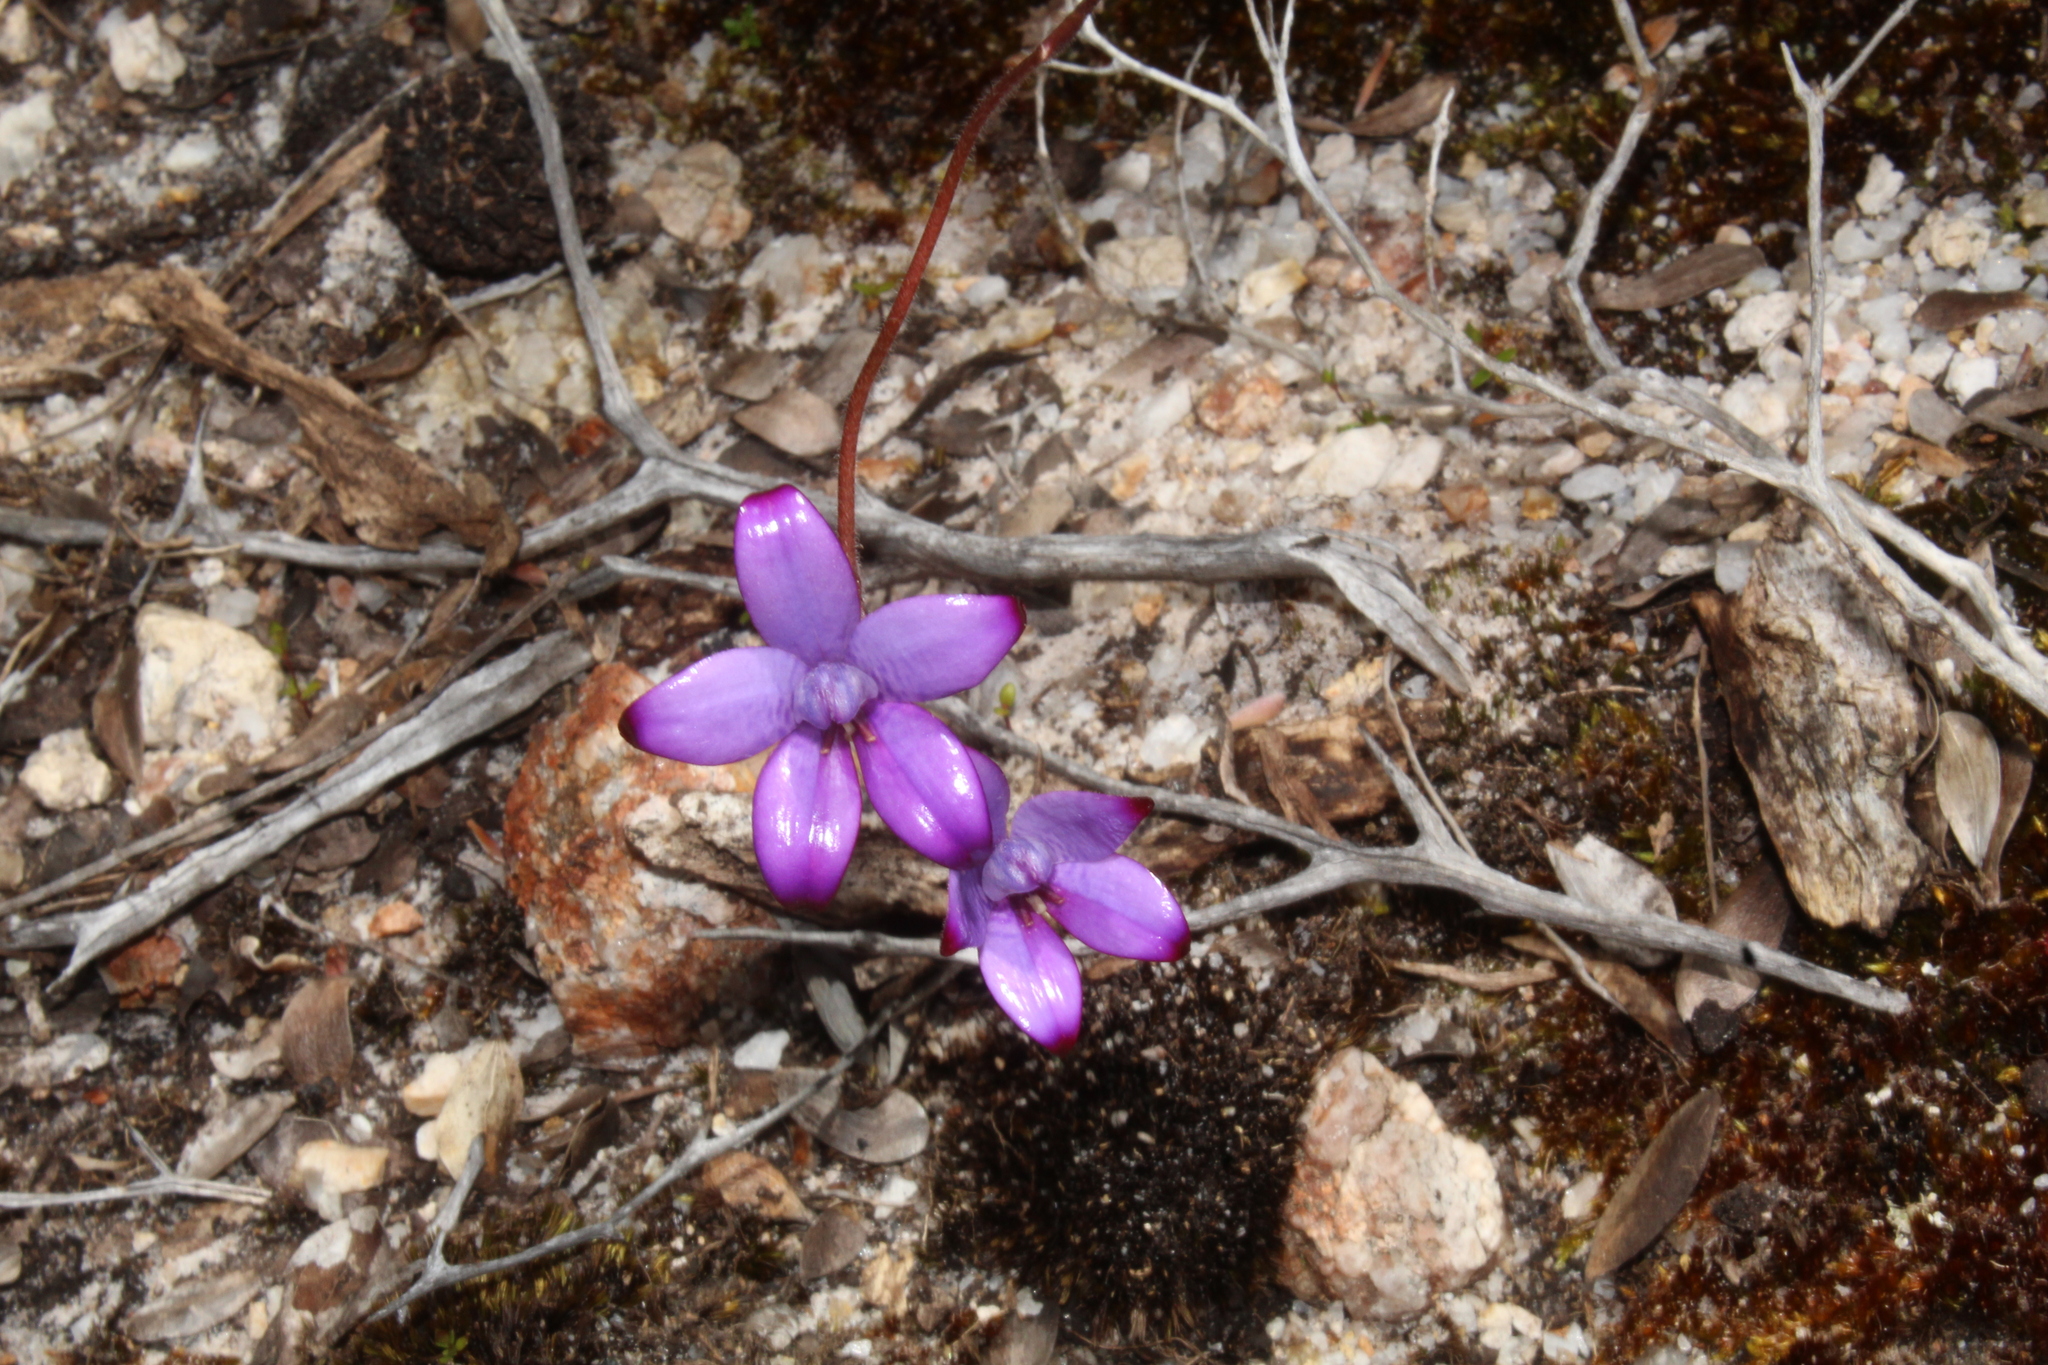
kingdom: Plantae
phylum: Tracheophyta
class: Liliopsida
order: Asparagales
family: Orchidaceae
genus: Caladenia
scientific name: Caladenia brunonis
